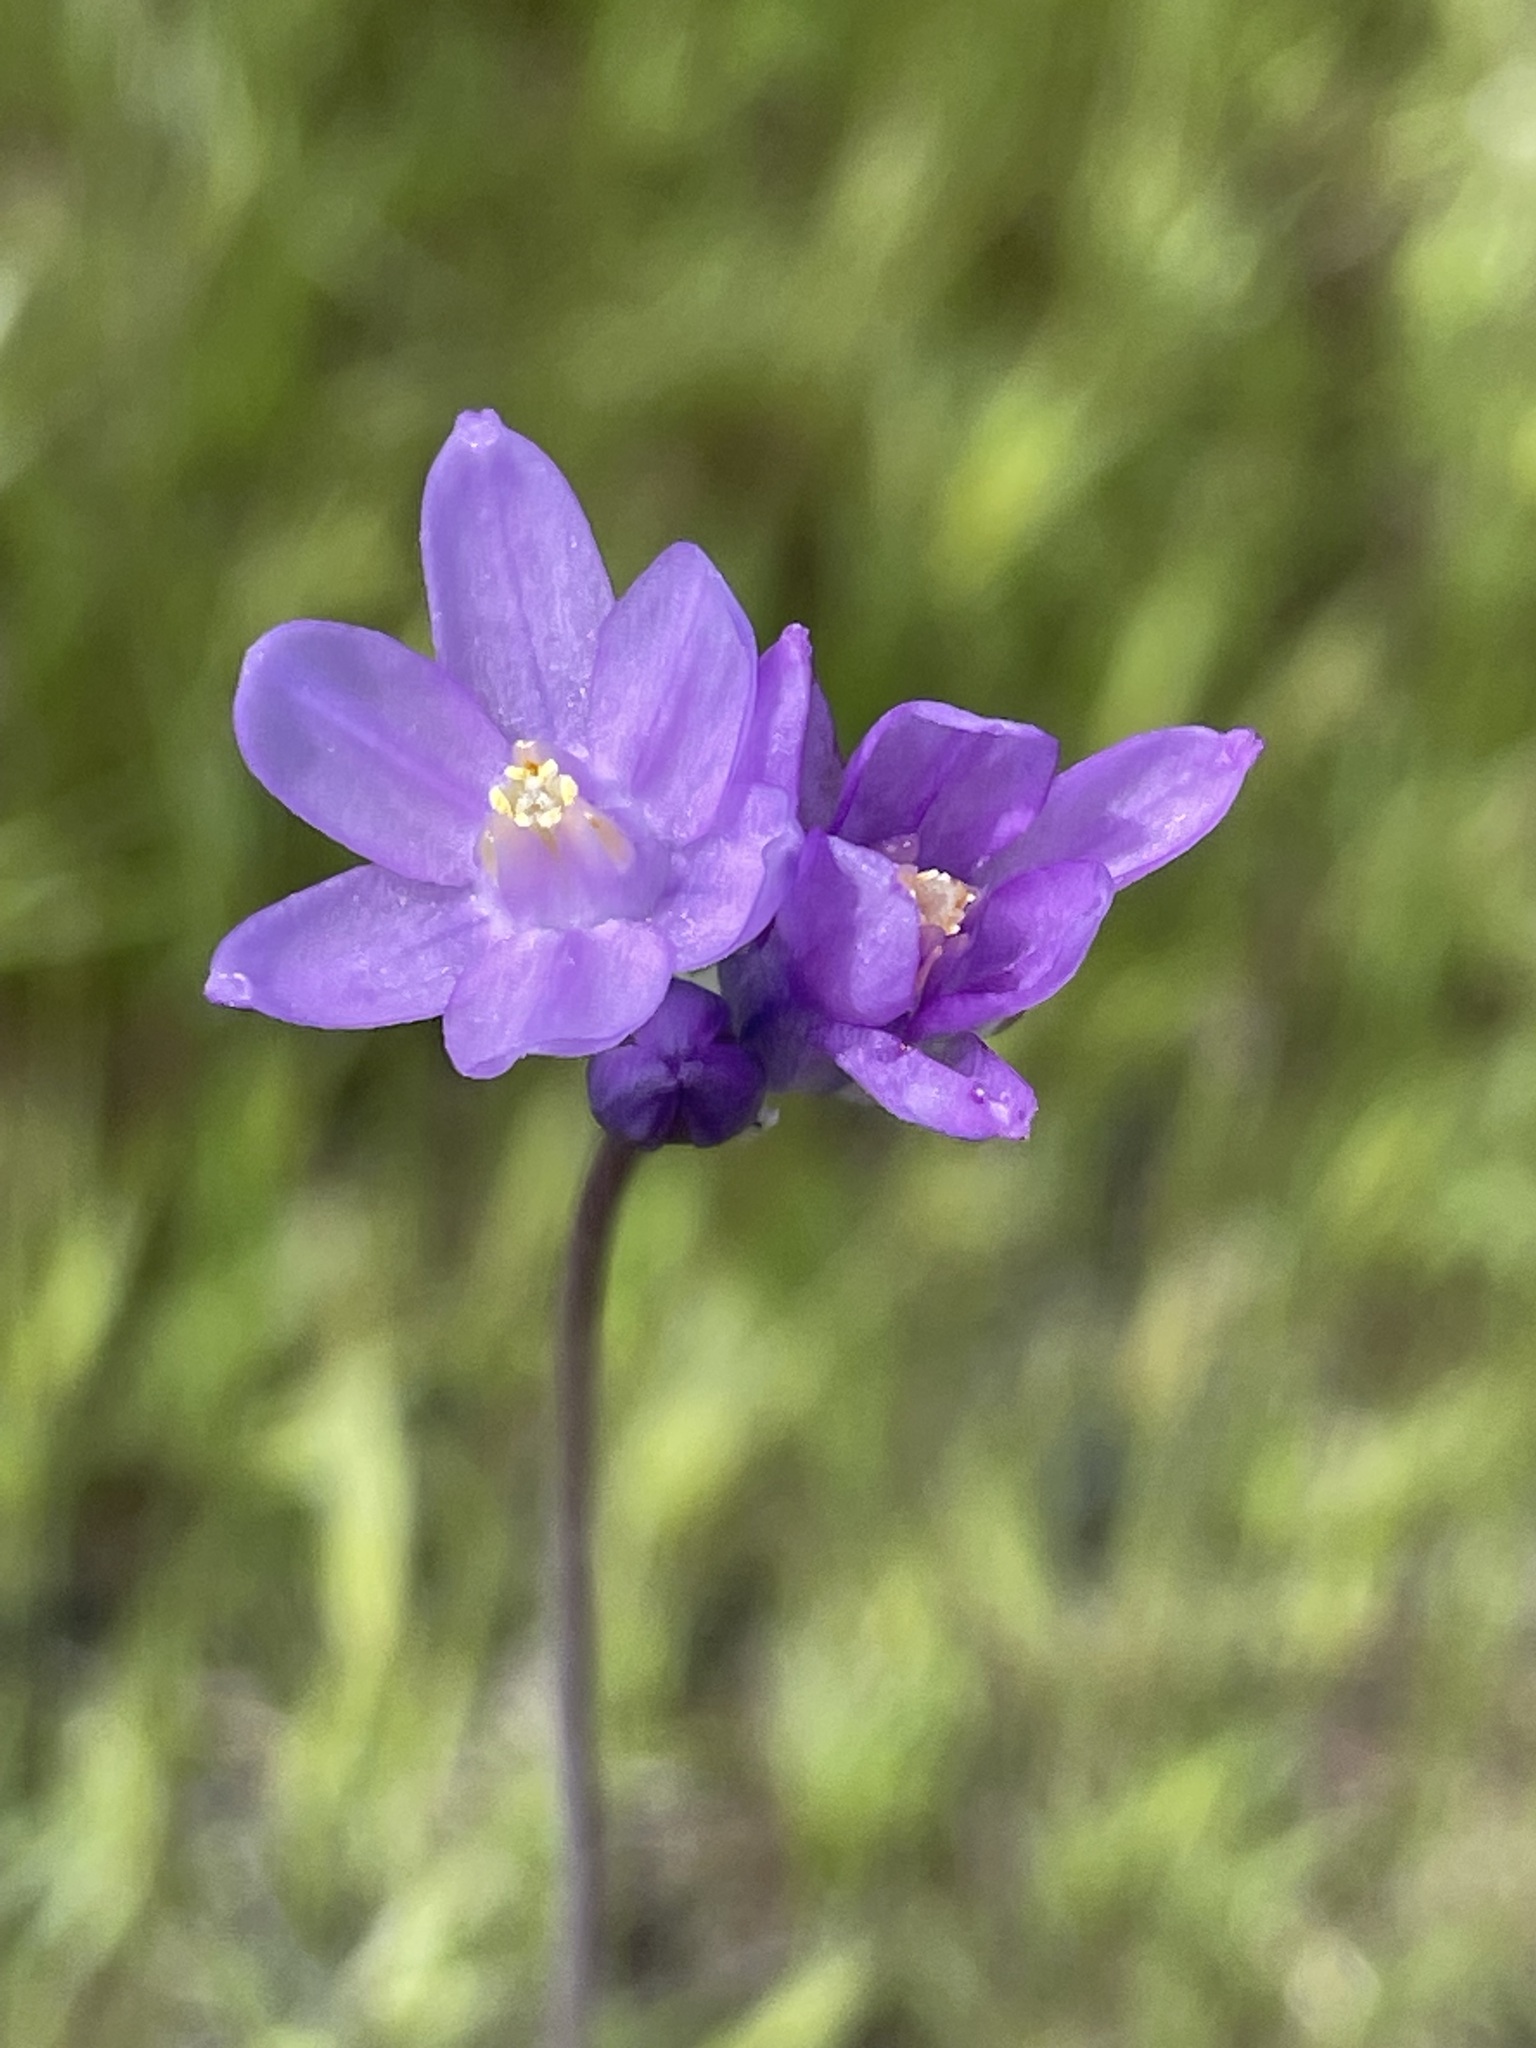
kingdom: Plantae
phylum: Tracheophyta
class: Liliopsida
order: Asparagales
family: Asparagaceae
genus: Dipterostemon
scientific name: Dipterostemon capitatus
